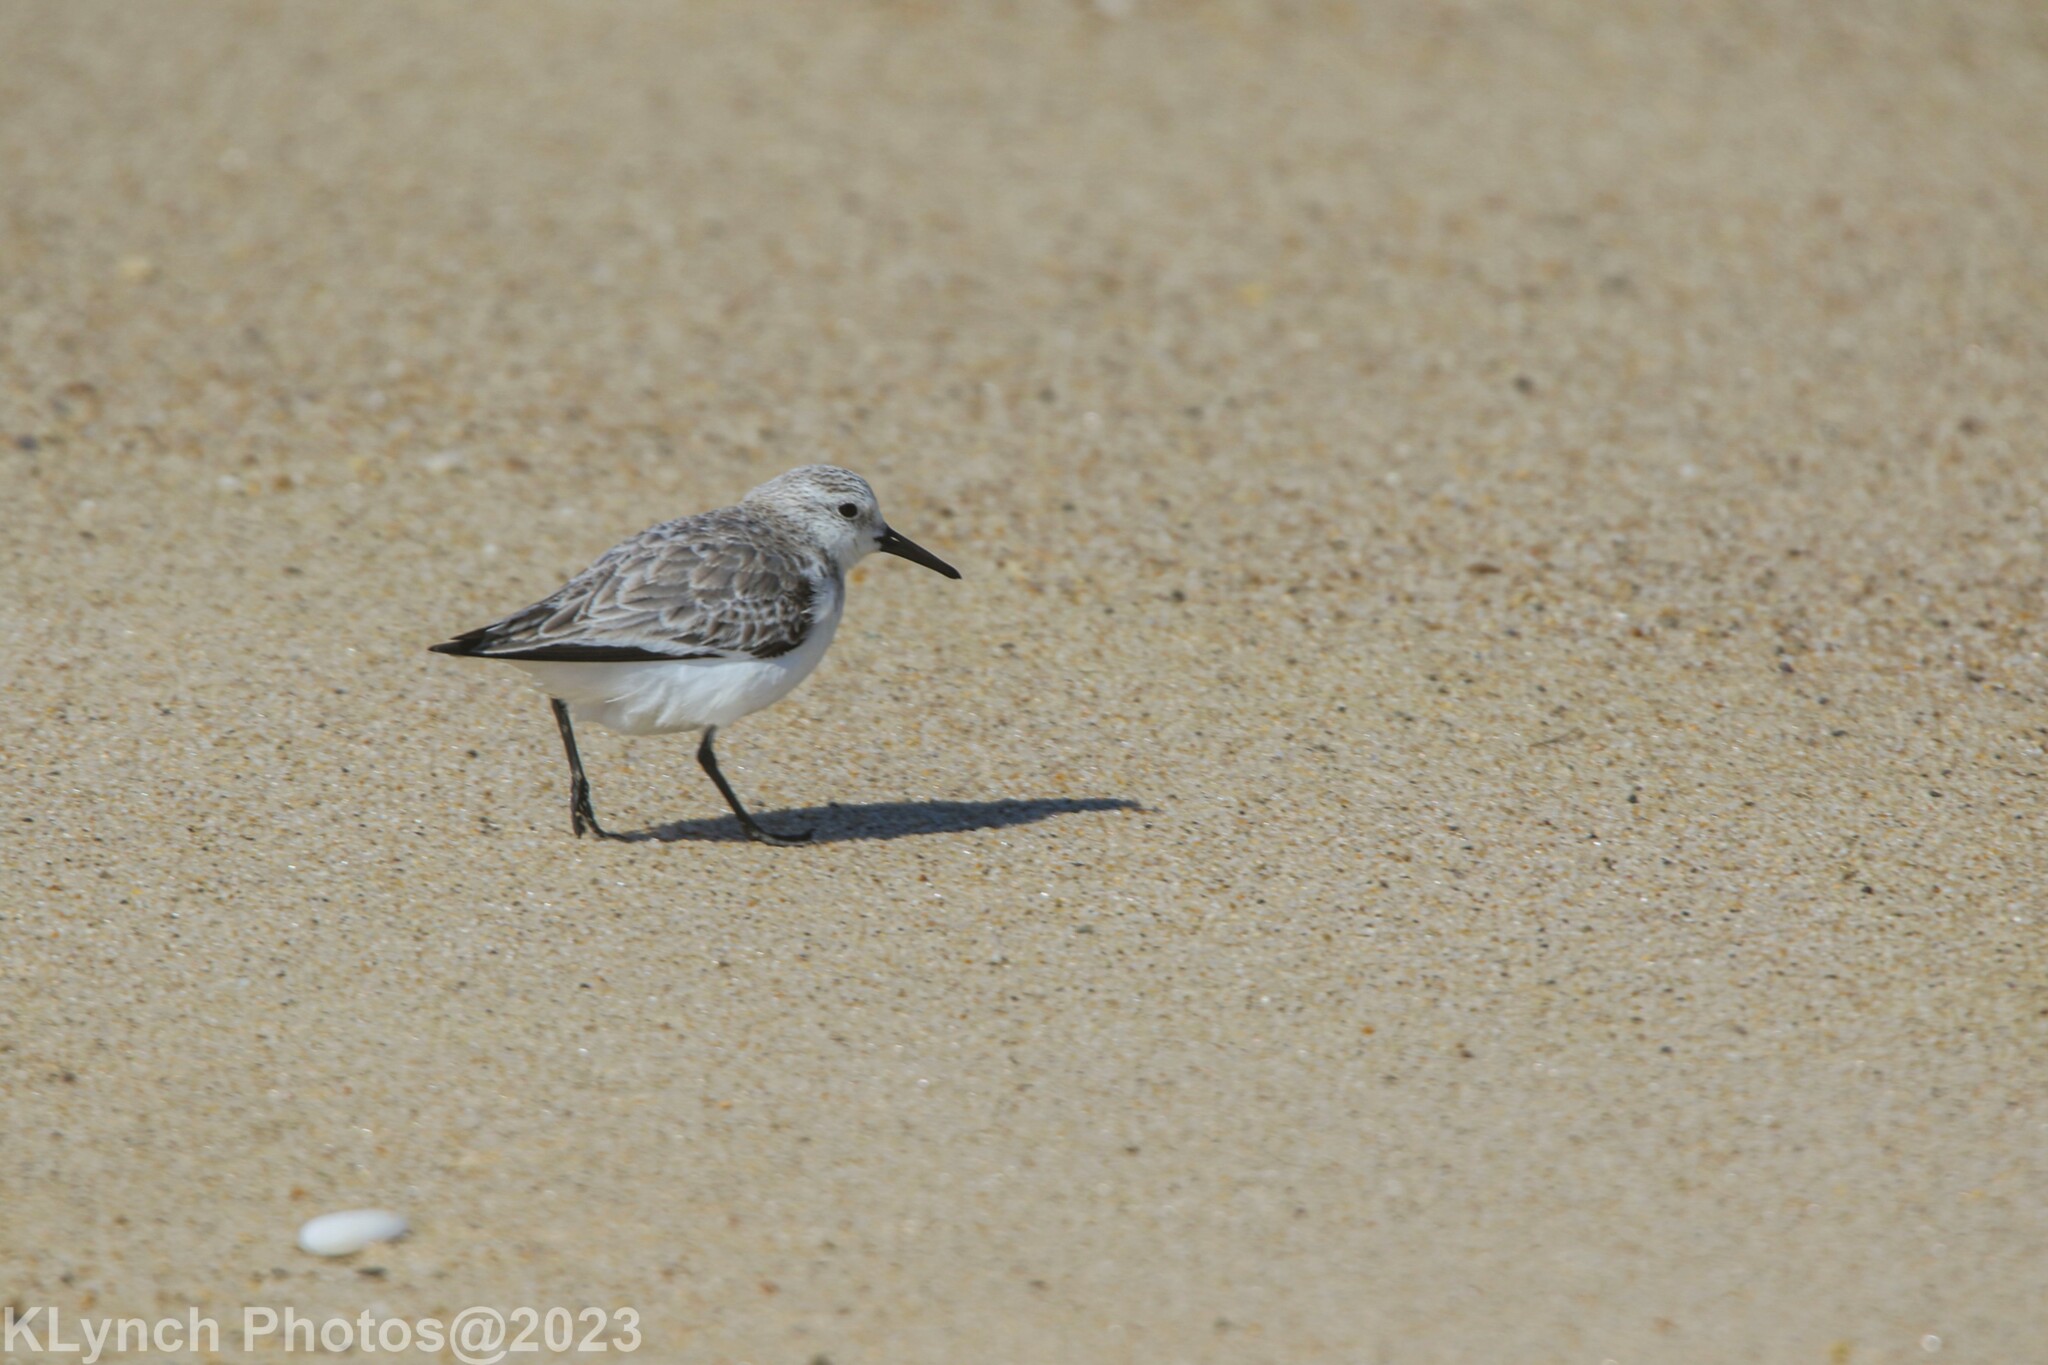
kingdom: Animalia
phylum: Chordata
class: Aves
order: Charadriiformes
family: Scolopacidae
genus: Calidris
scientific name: Calidris alba
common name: Sanderling
